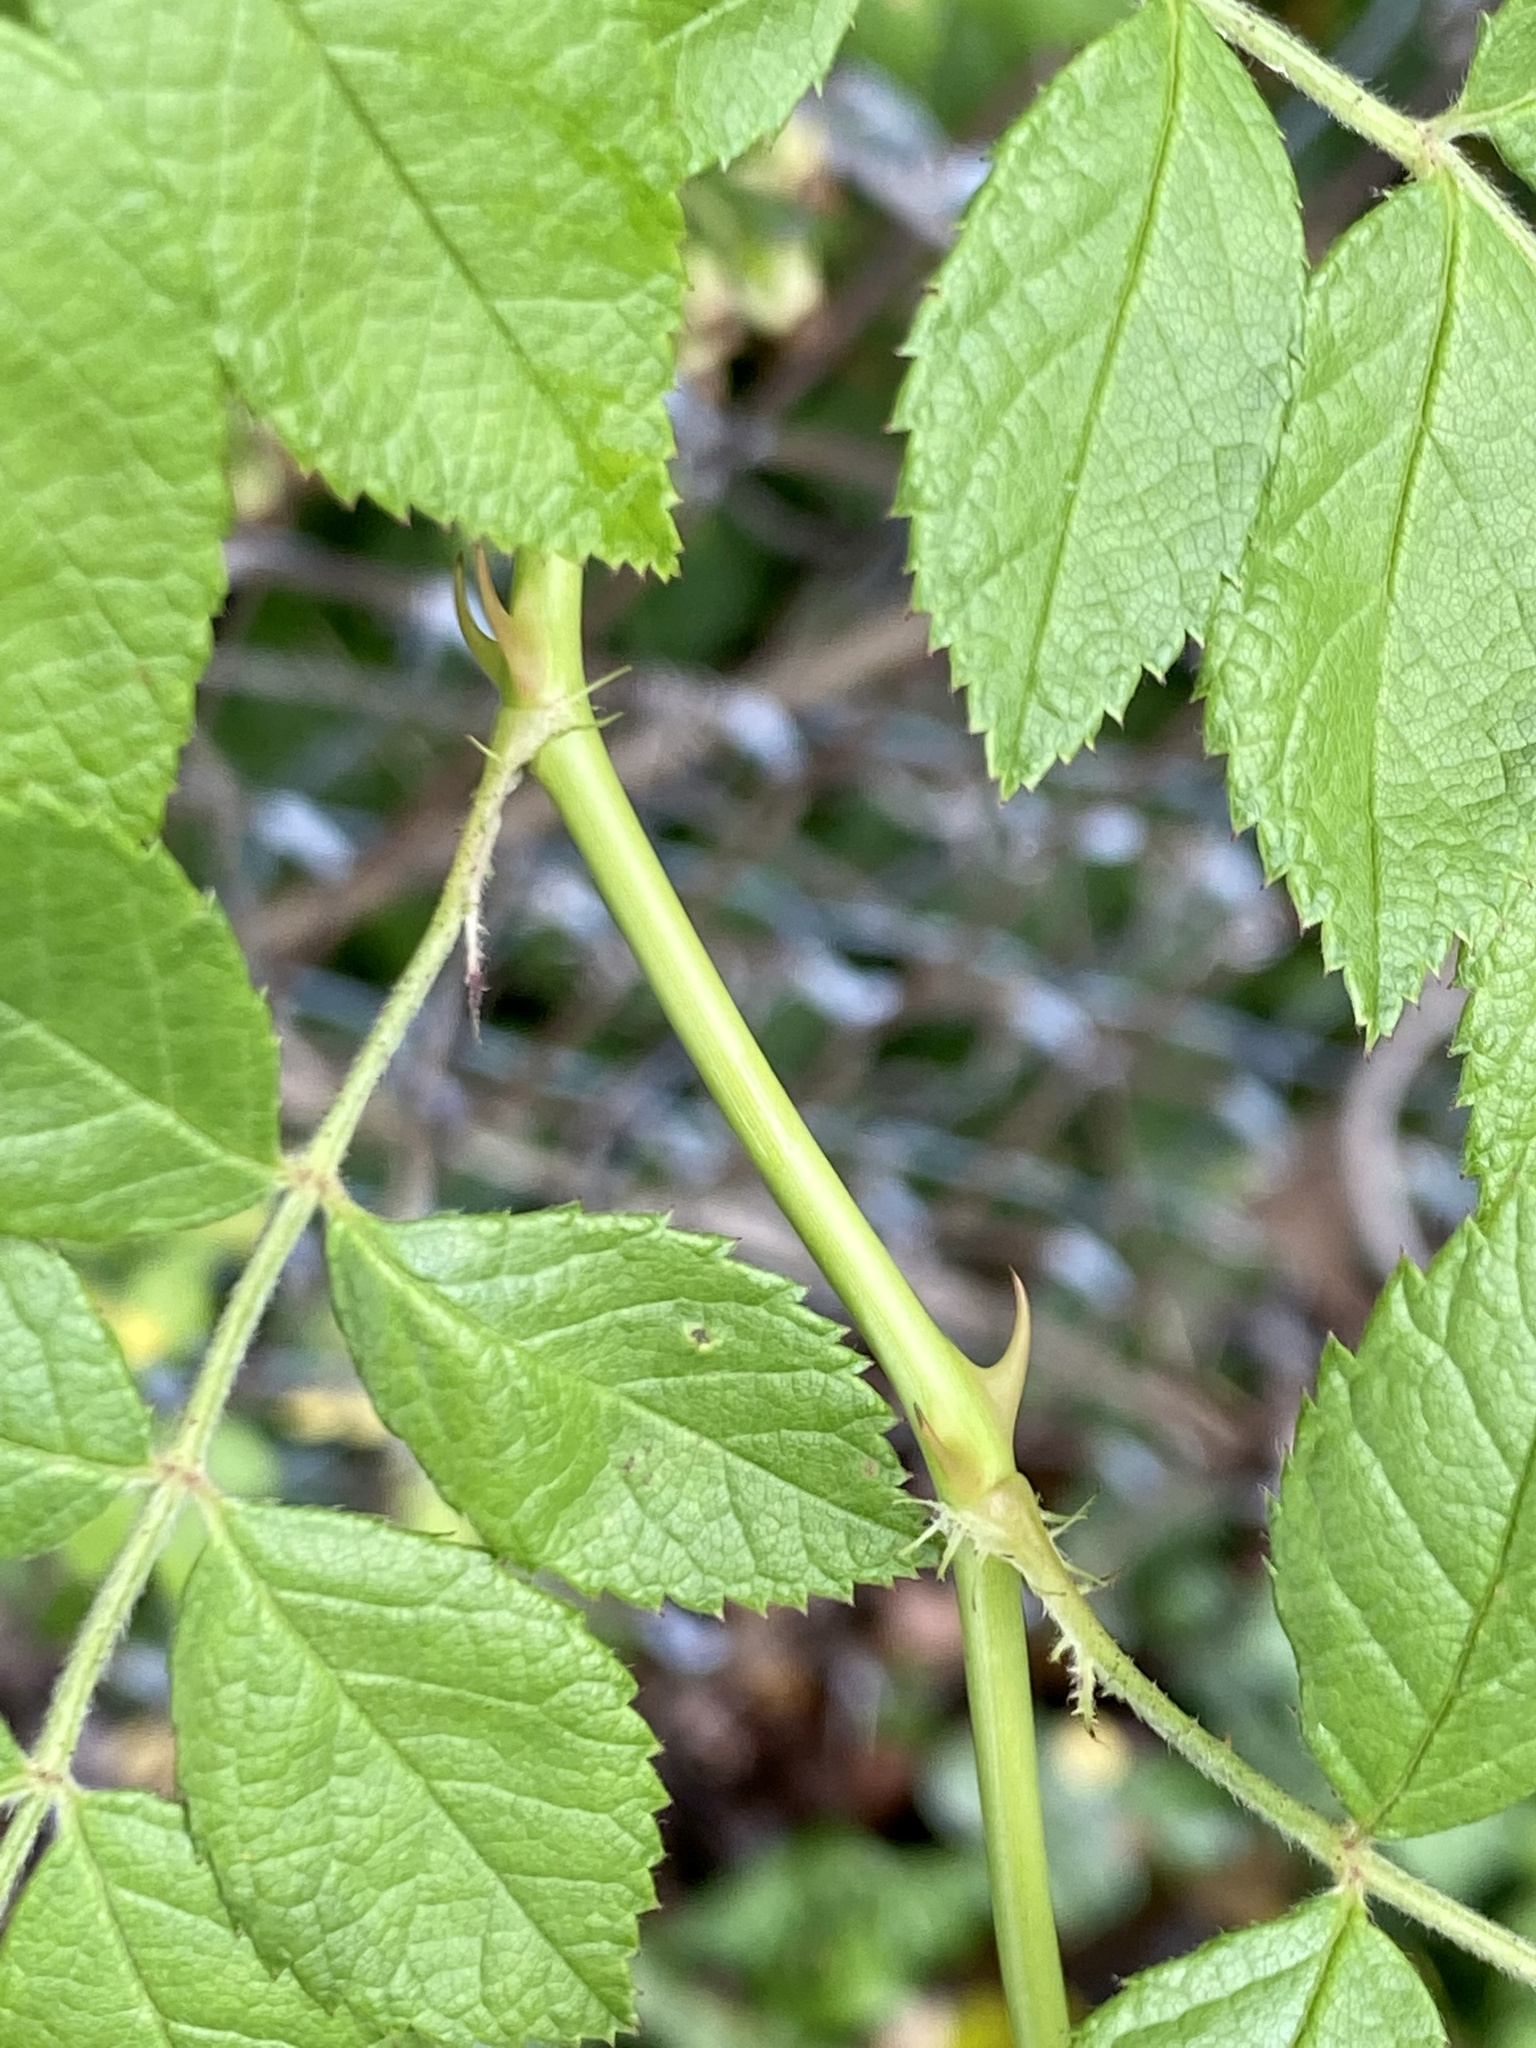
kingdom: Plantae
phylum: Tracheophyta
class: Magnoliopsida
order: Rosales
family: Rosaceae
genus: Rosa
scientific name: Rosa multiflora
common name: Multiflora rose
